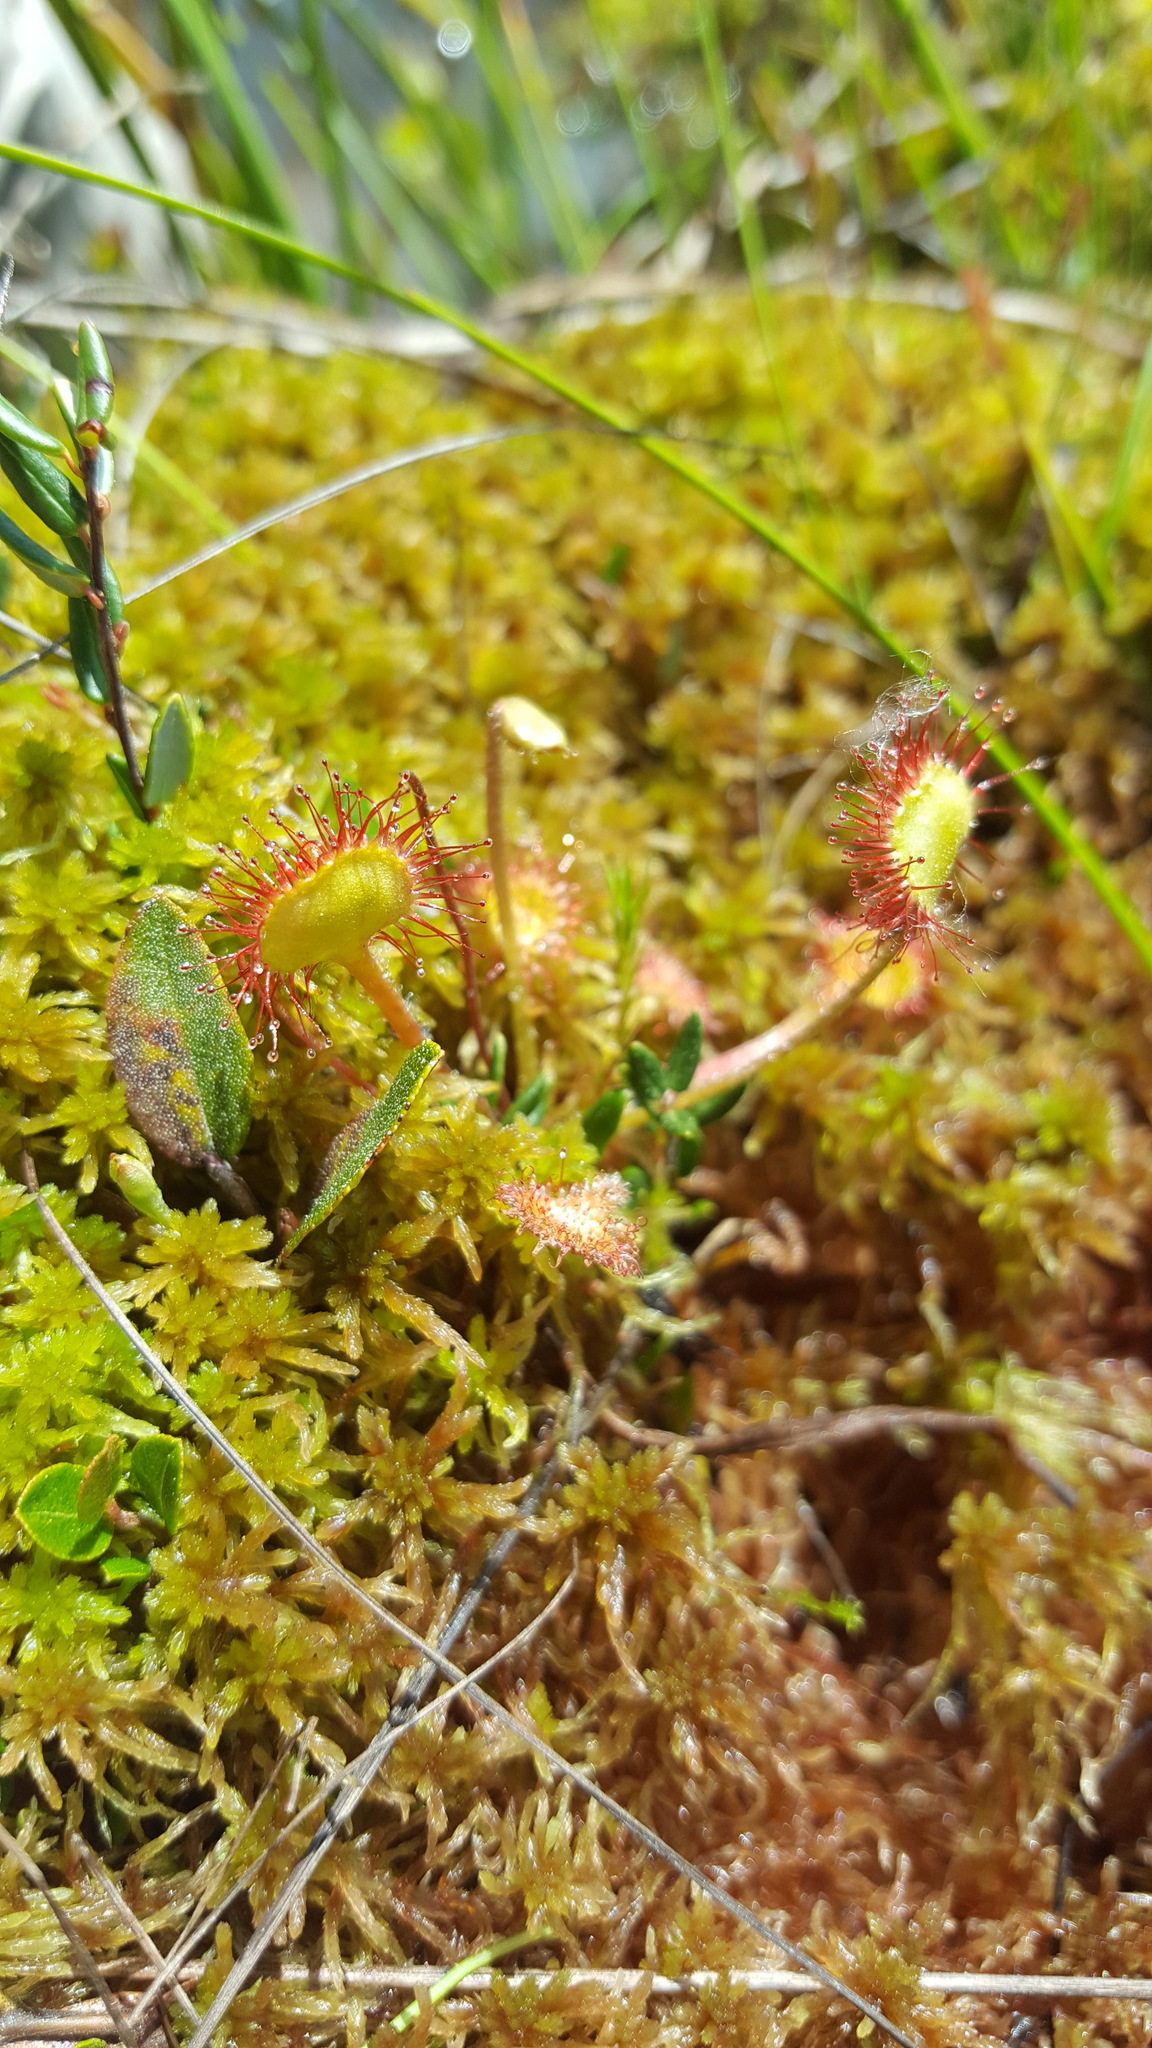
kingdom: Plantae
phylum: Tracheophyta
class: Magnoliopsida
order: Caryophyllales
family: Droseraceae
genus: Drosera
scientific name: Drosera rotundifolia
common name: Round-leaved sundew
